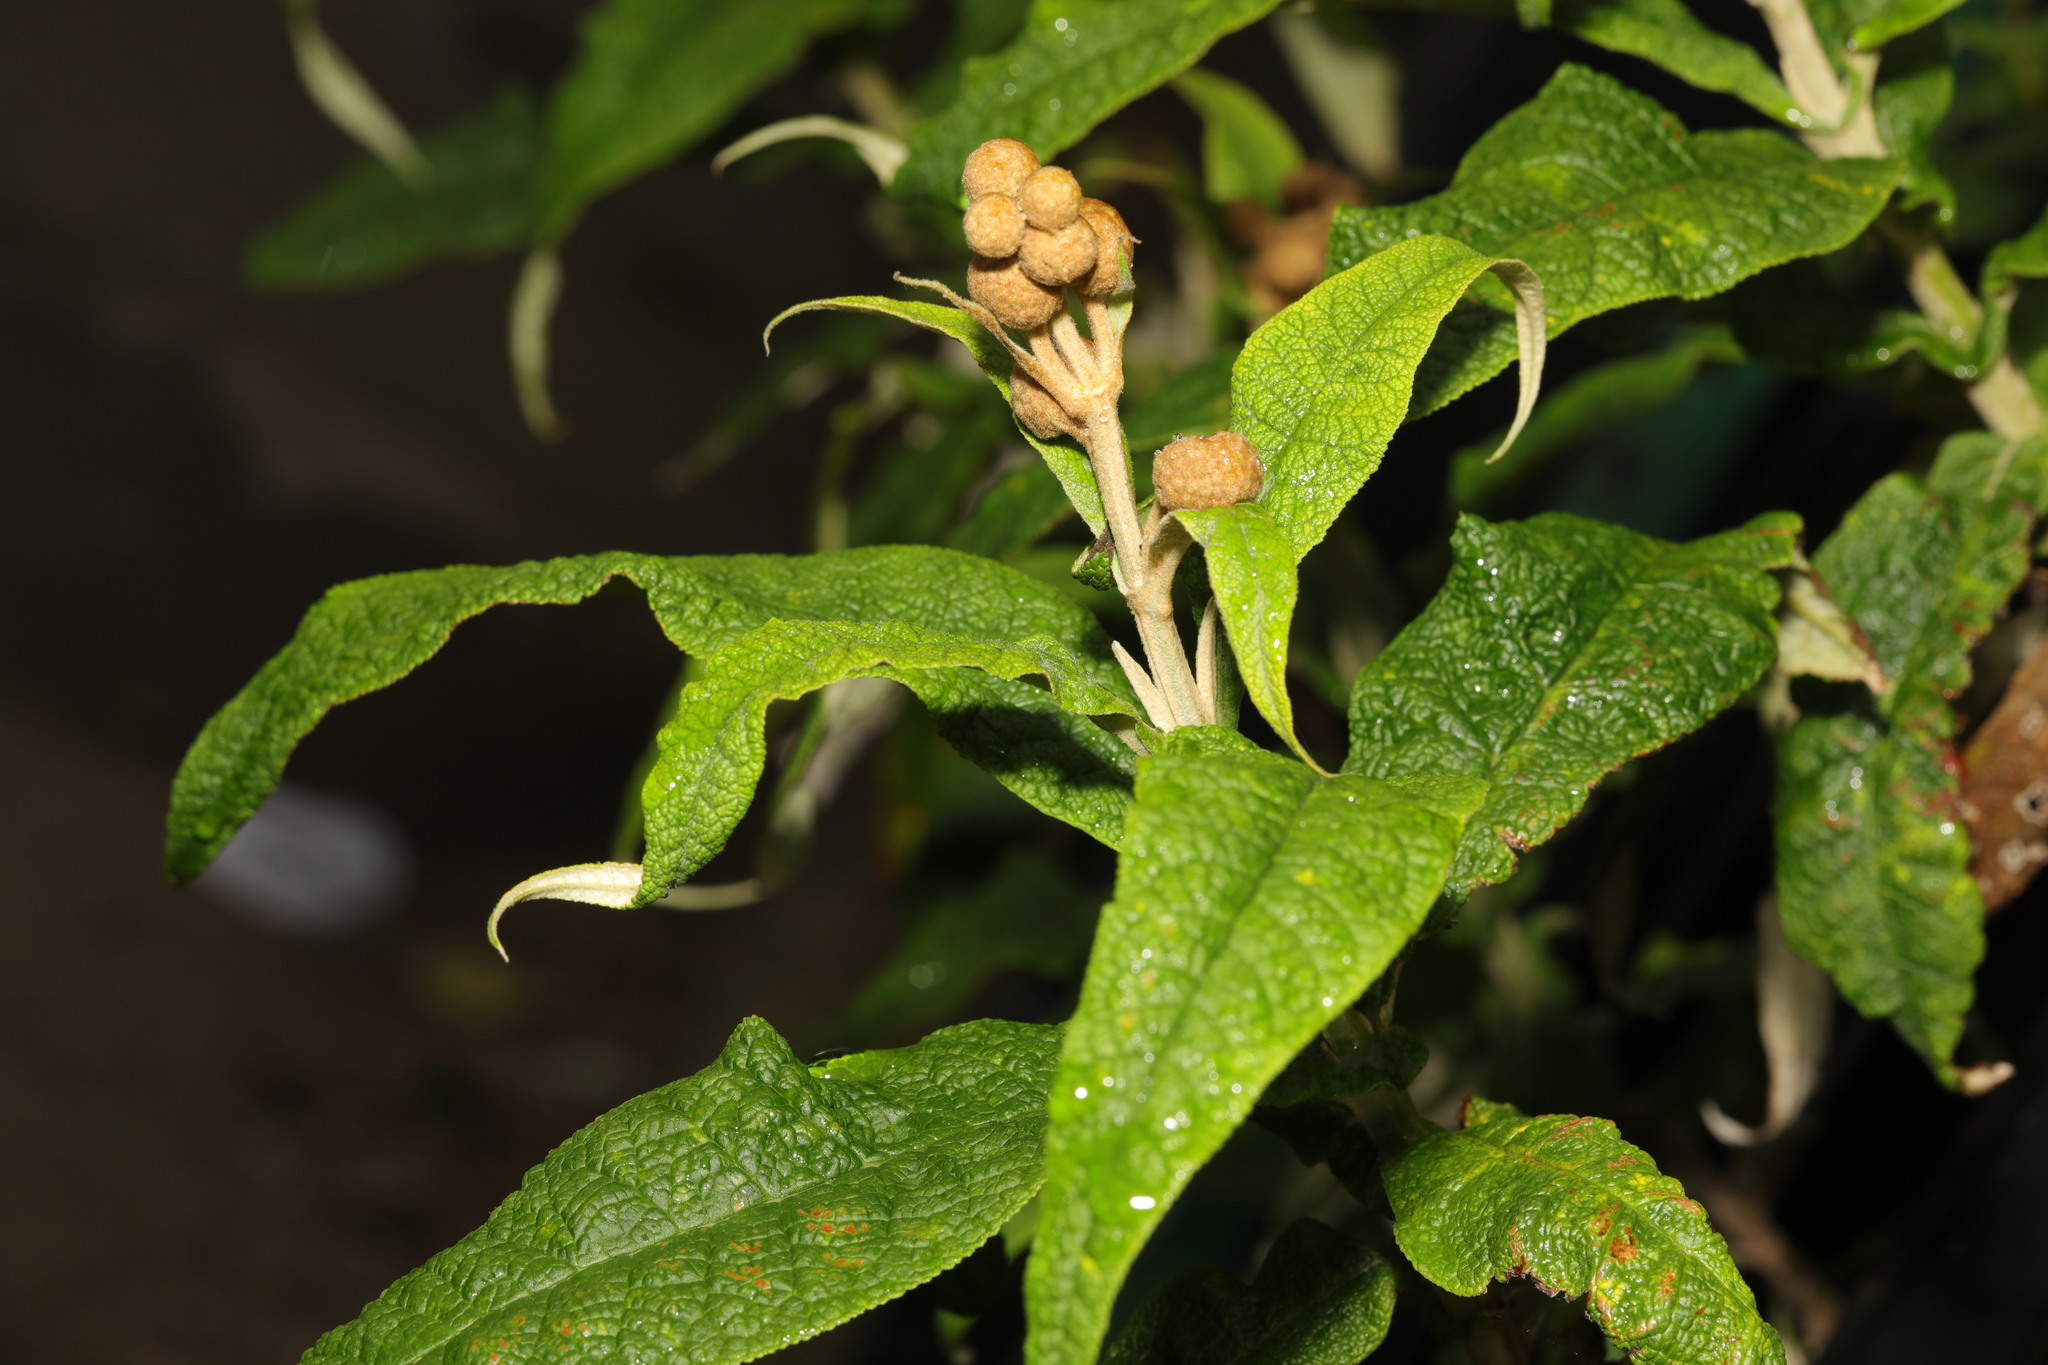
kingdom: Plantae
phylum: Tracheophyta
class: Magnoliopsida
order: Lamiales
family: Scrophulariaceae
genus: Buddleja
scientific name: Buddleja globosa
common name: Orange-ball-tree
